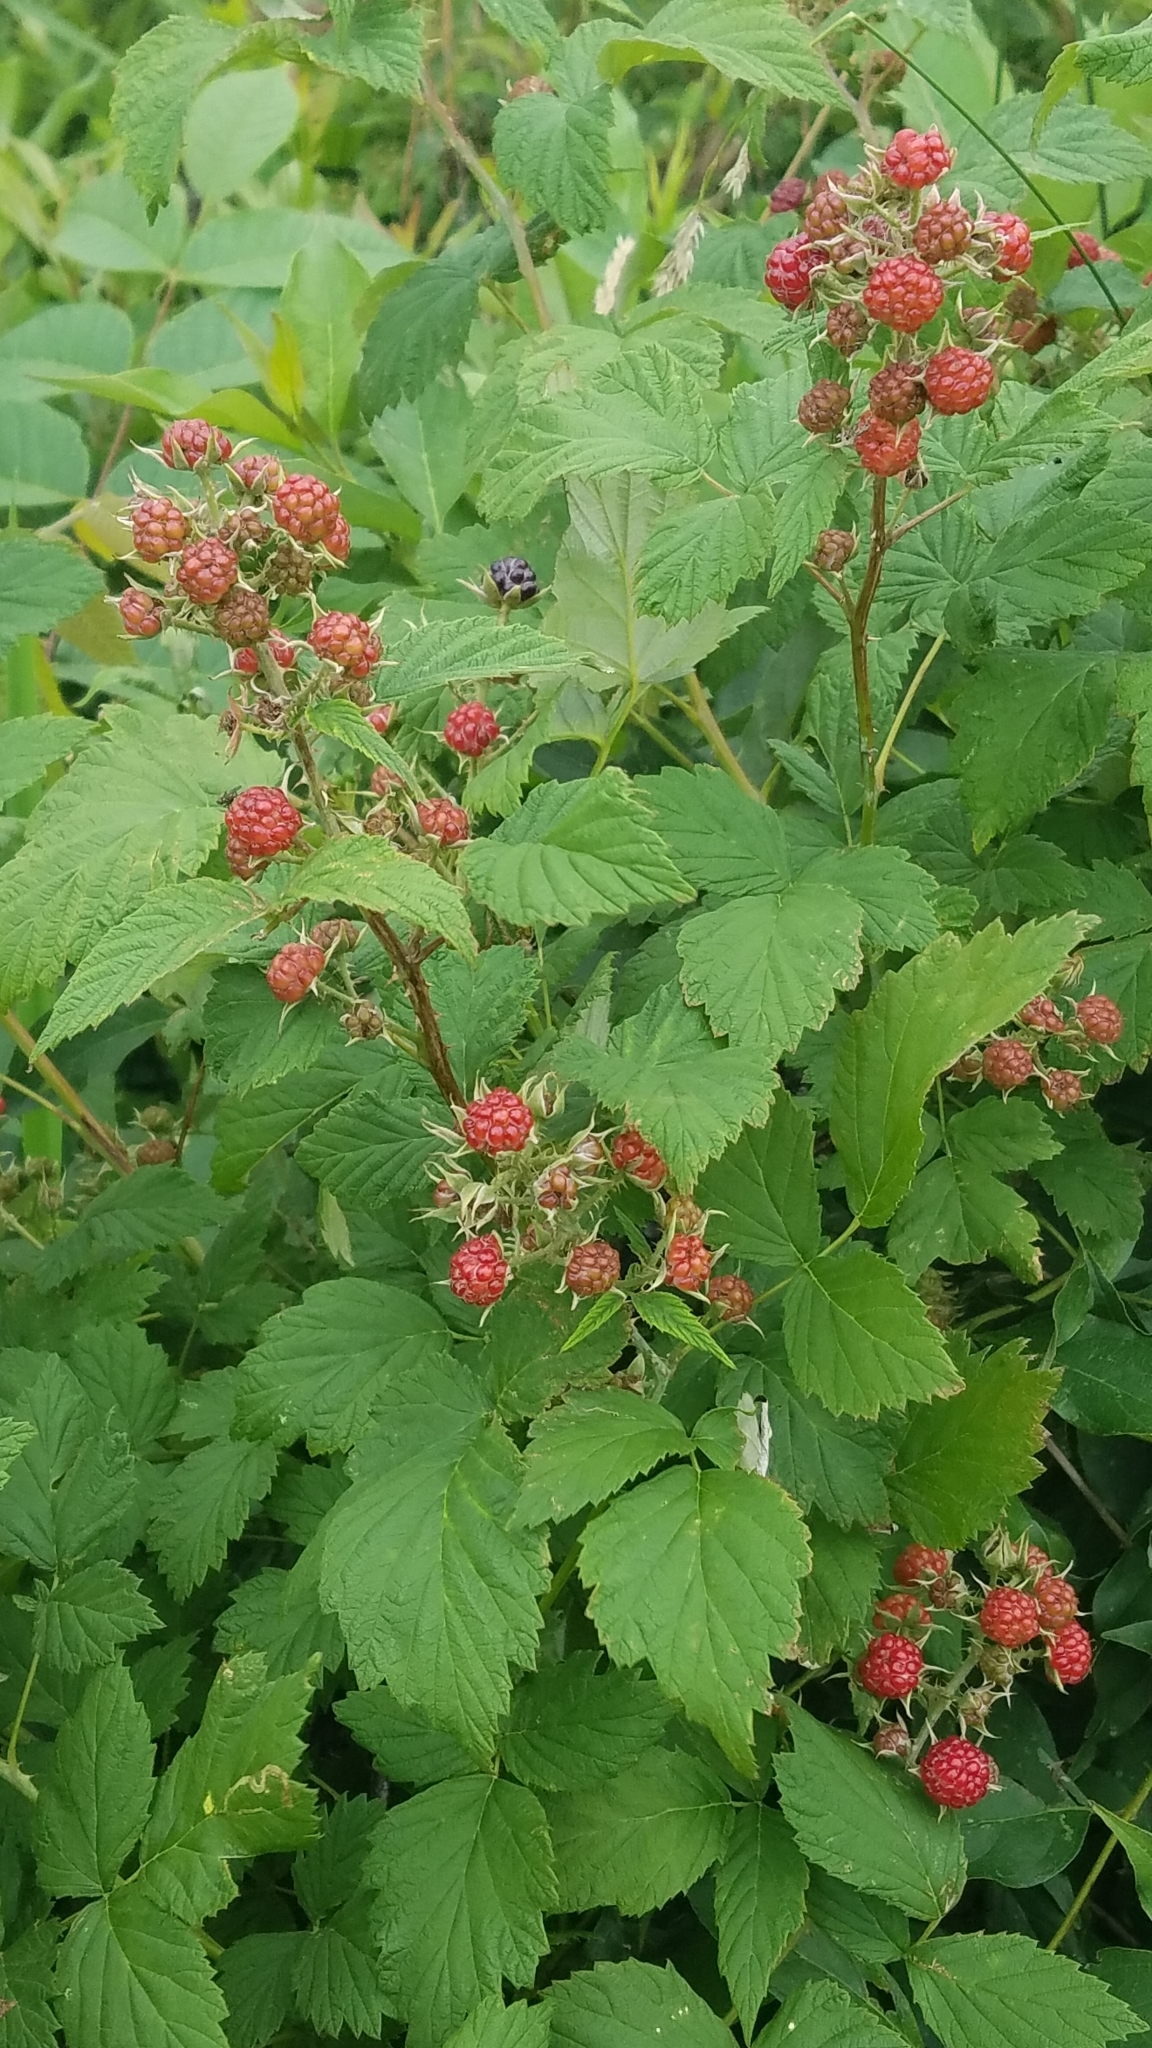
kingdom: Plantae
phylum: Tracheophyta
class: Magnoliopsida
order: Rosales
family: Rosaceae
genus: Rubus
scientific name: Rubus occidentalis
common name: Black raspberry
